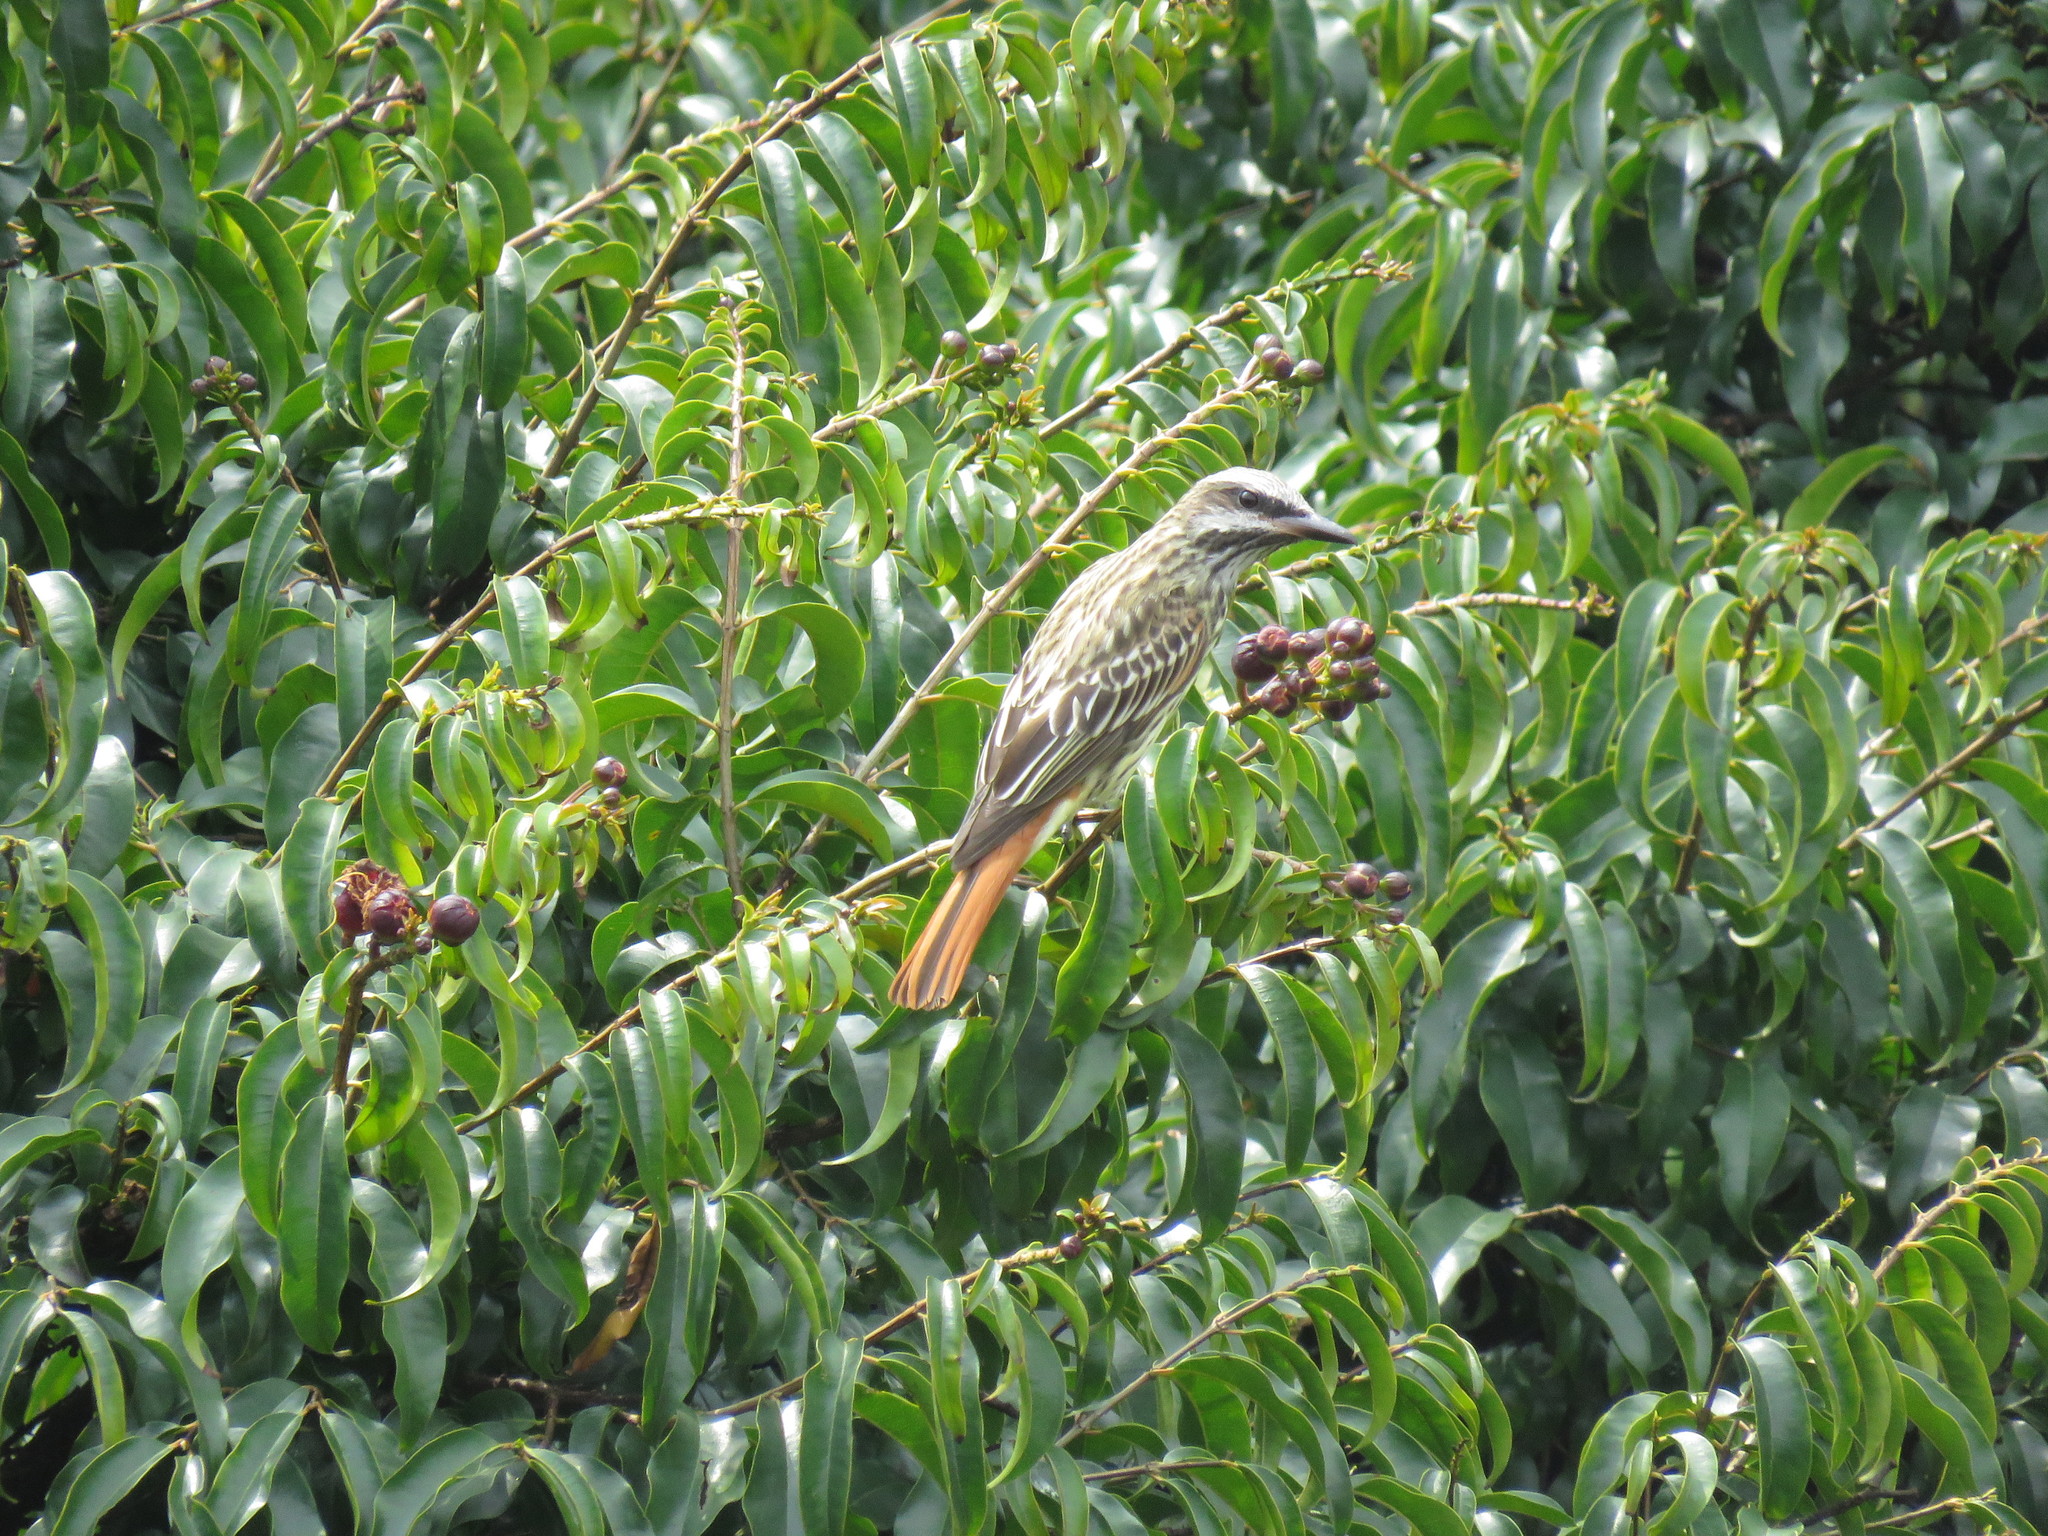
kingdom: Animalia
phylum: Chordata
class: Aves
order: Passeriformes
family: Tyrannidae
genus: Myiodynastes
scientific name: Myiodynastes luteiventris
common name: Sulphur-bellied flycatcher
